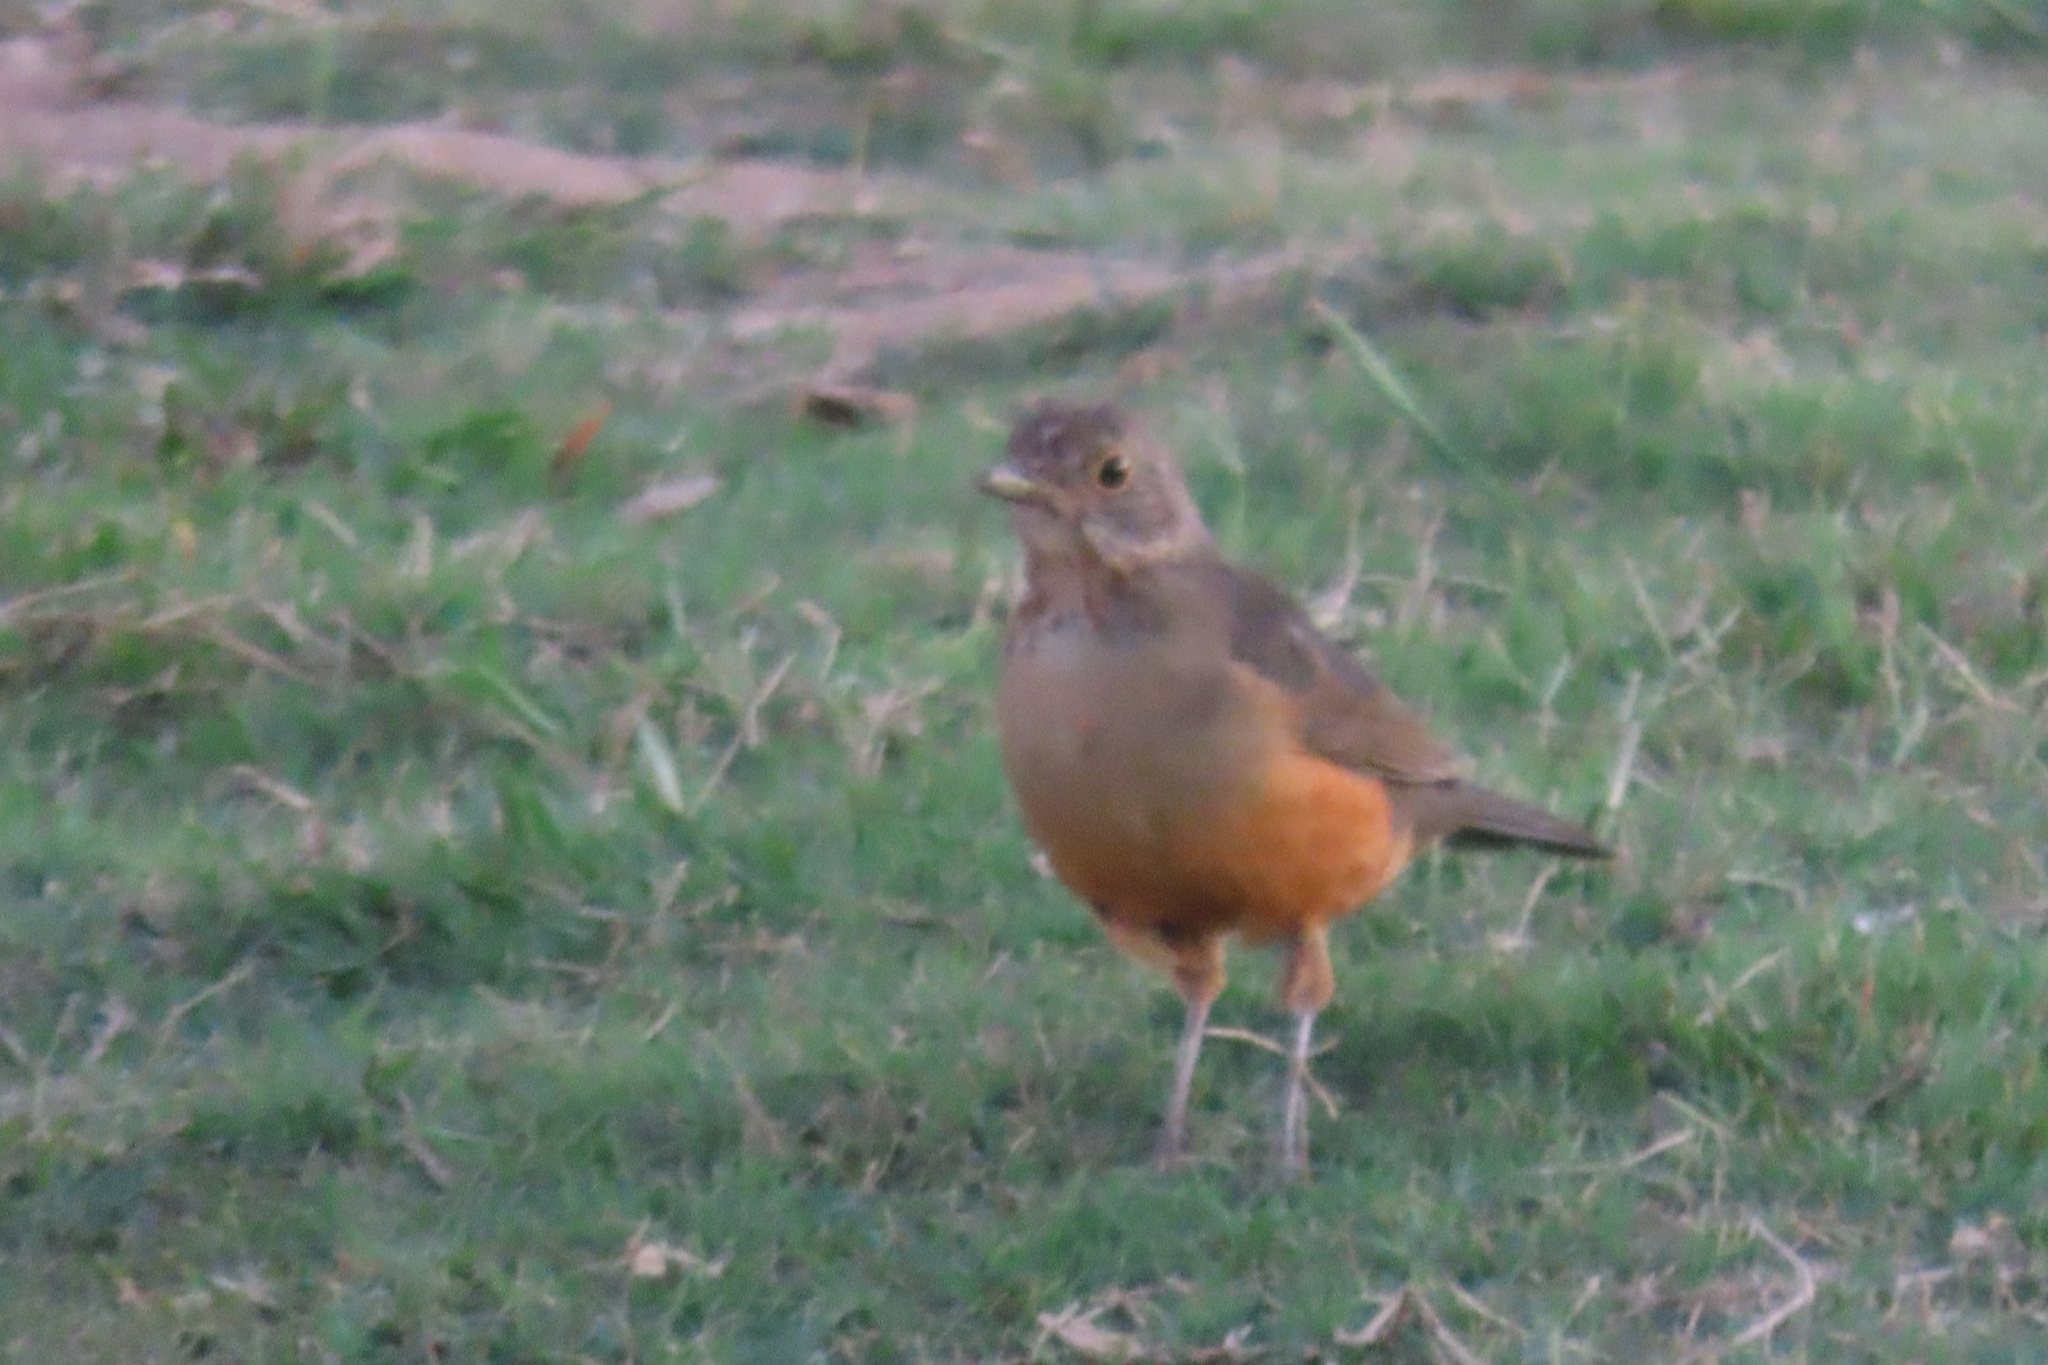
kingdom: Animalia
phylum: Chordata
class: Aves
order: Passeriformes
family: Turdidae
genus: Turdus
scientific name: Turdus rufiventris
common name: Rufous-bellied thrush
